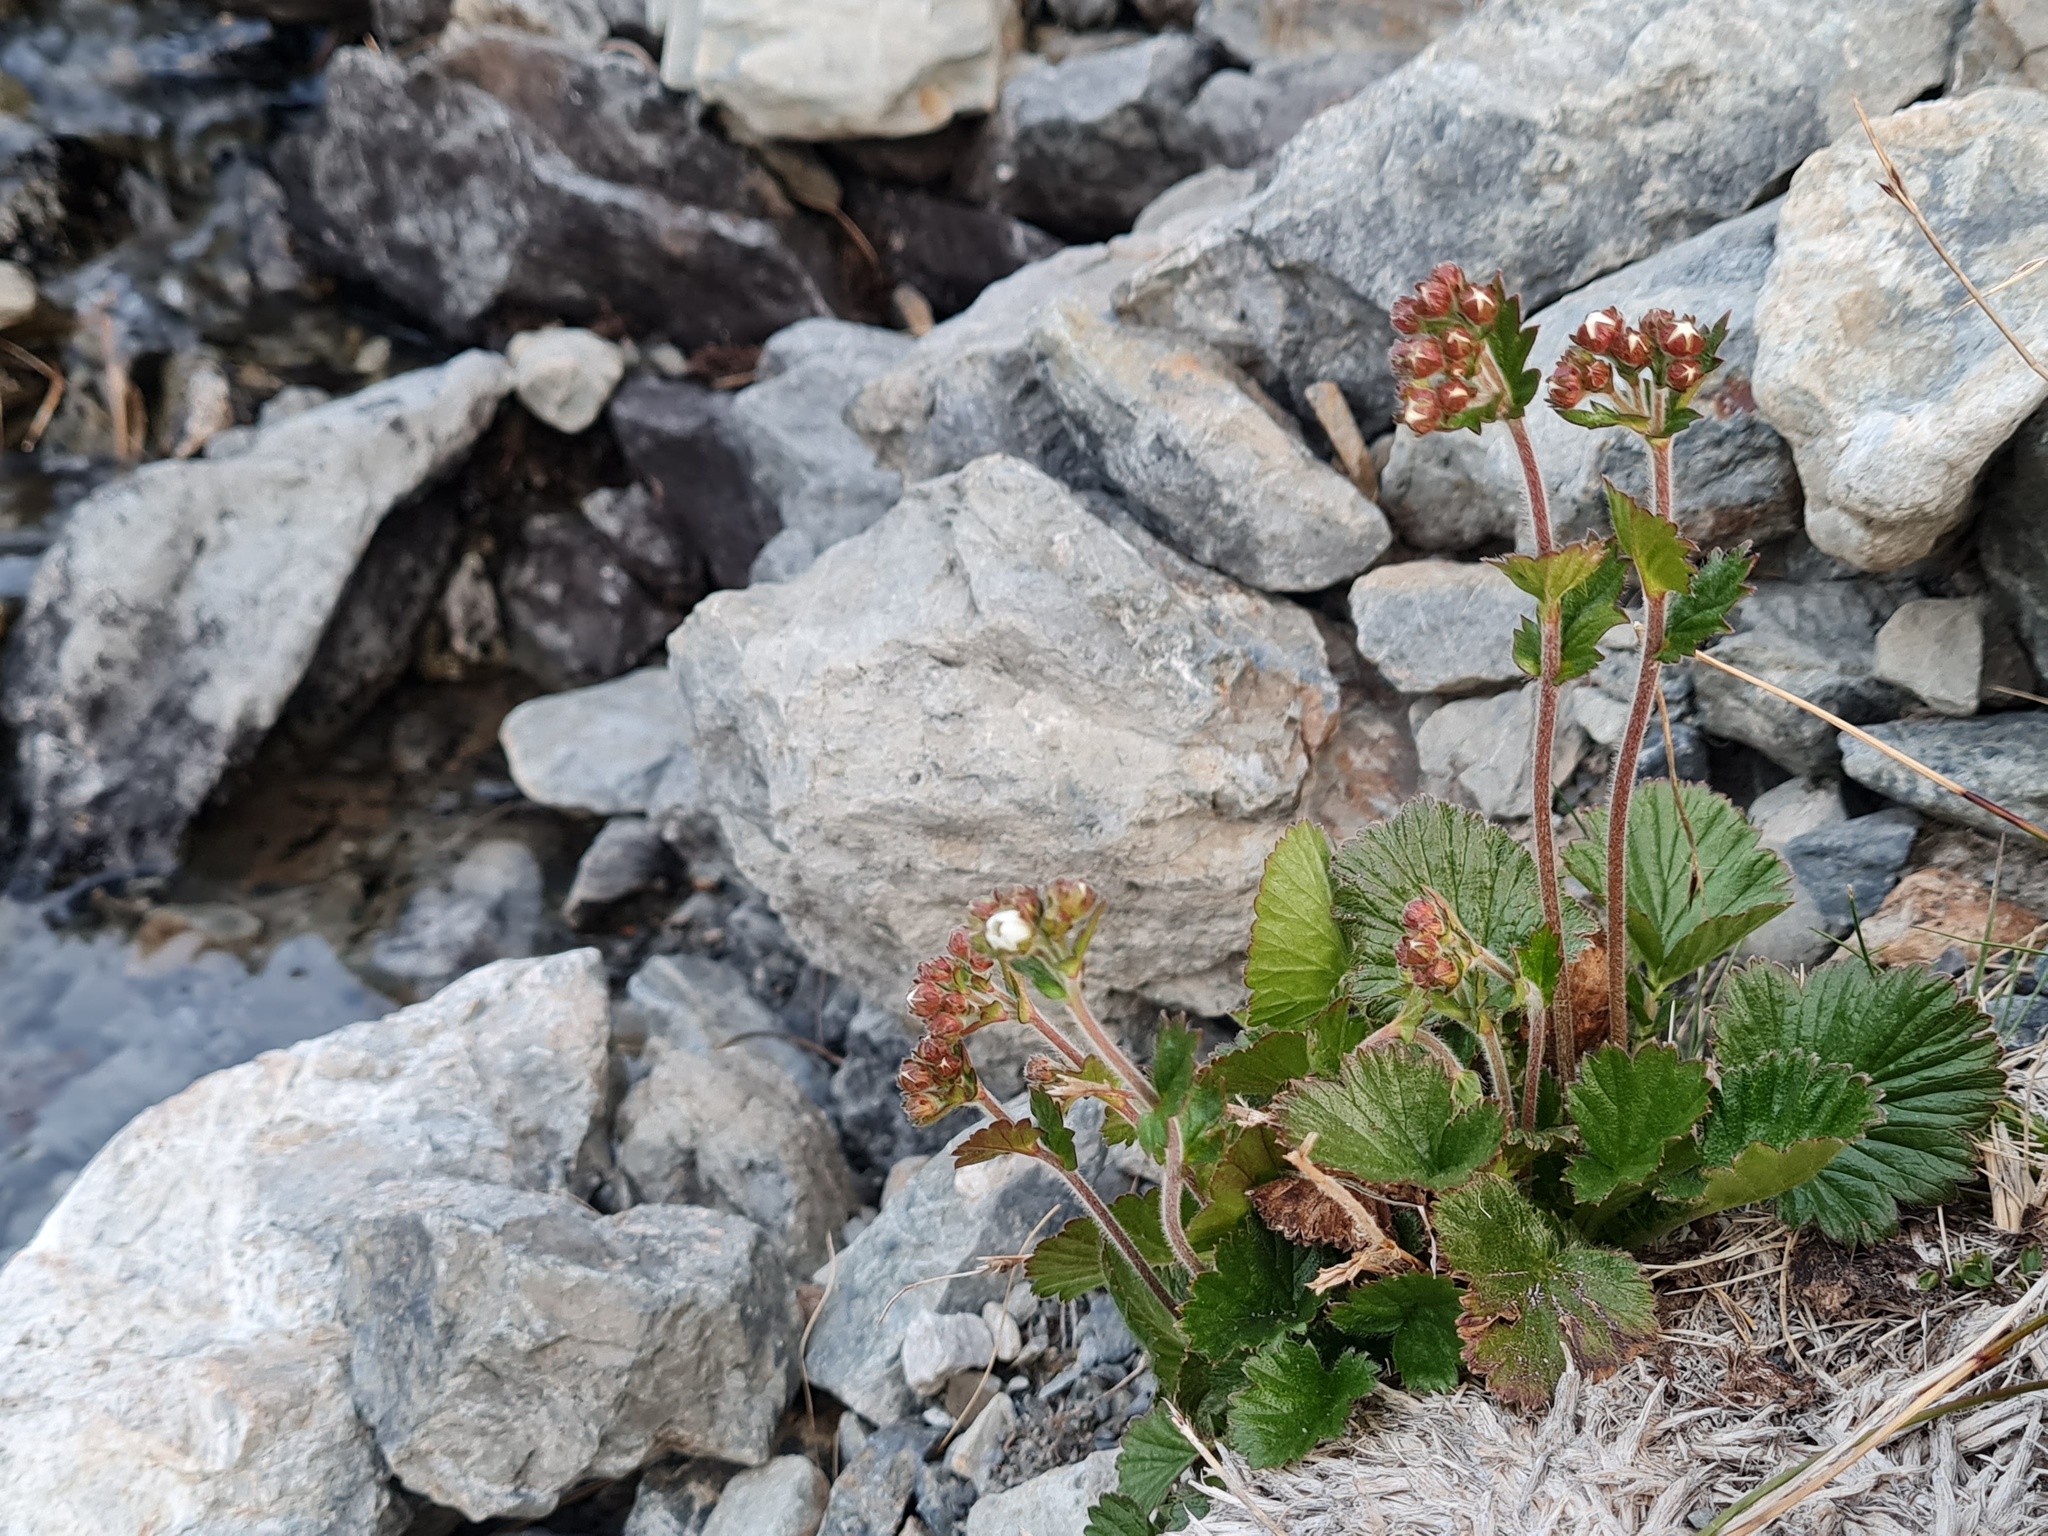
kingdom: Plantae
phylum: Tracheophyta
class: Magnoliopsida
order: Rosales
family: Rosaceae
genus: Geum
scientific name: Geum cockaynei
